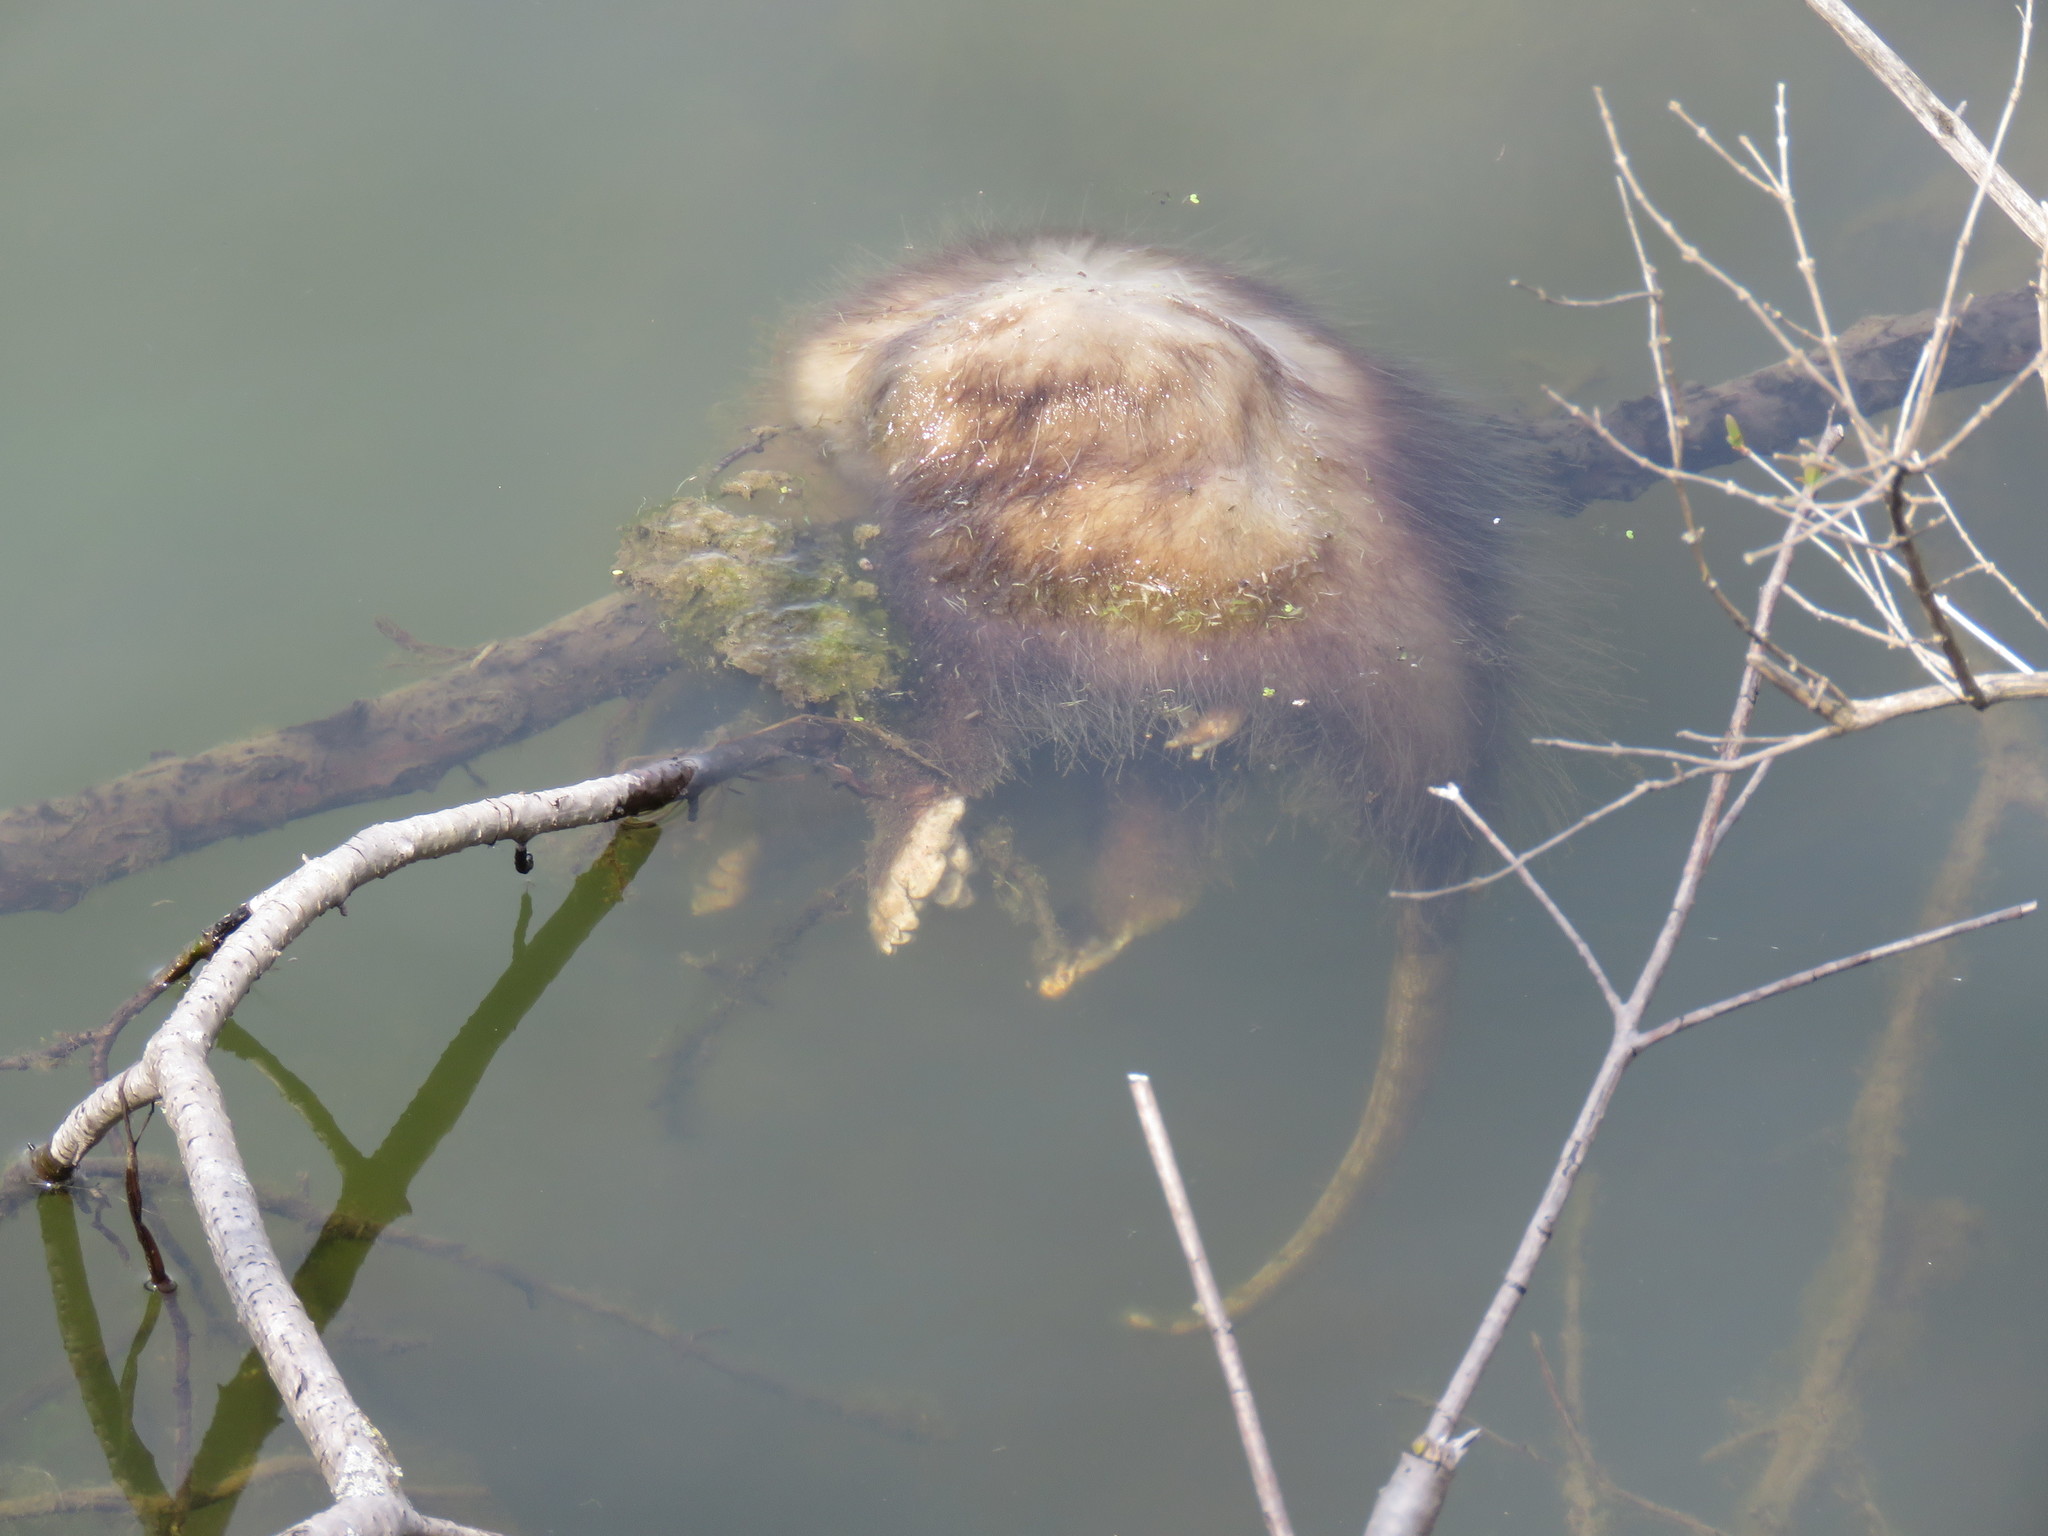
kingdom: Animalia
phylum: Chordata
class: Mammalia
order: Didelphimorphia
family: Didelphidae
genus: Didelphis
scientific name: Didelphis virginiana
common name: Virginia opossum
